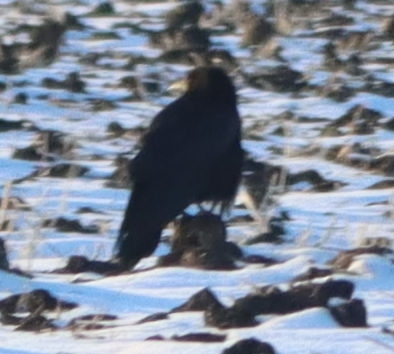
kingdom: Animalia
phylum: Chordata
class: Aves
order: Passeriformes
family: Corvidae
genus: Corvus
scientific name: Corvus corax
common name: Common raven
